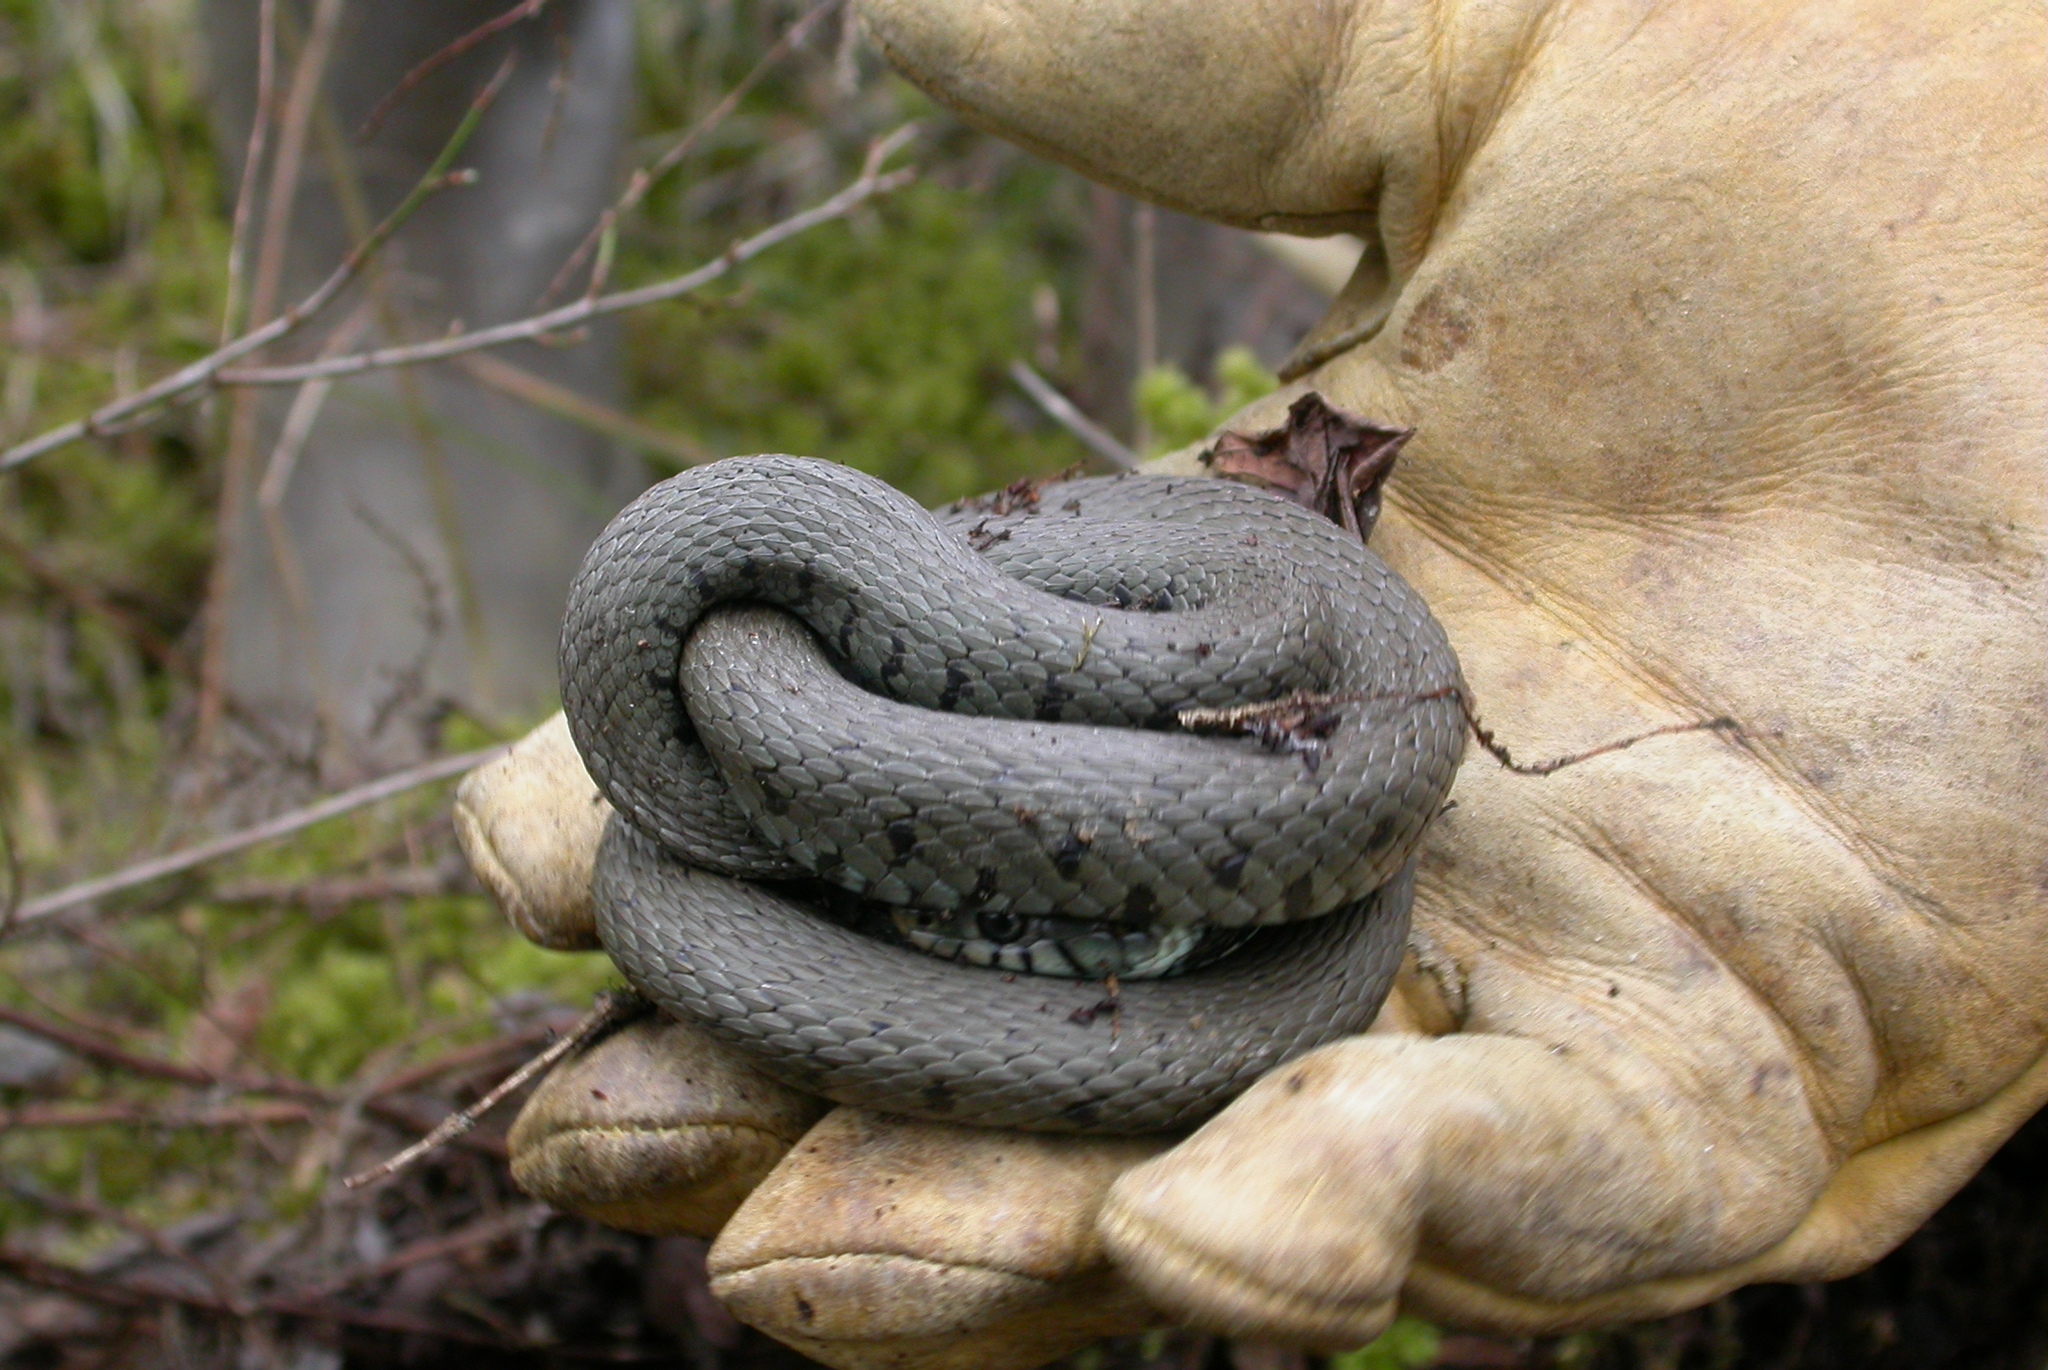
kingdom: Animalia
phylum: Chordata
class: Squamata
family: Colubridae
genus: Natrix
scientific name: Natrix helvetica
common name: Banded grass snake
